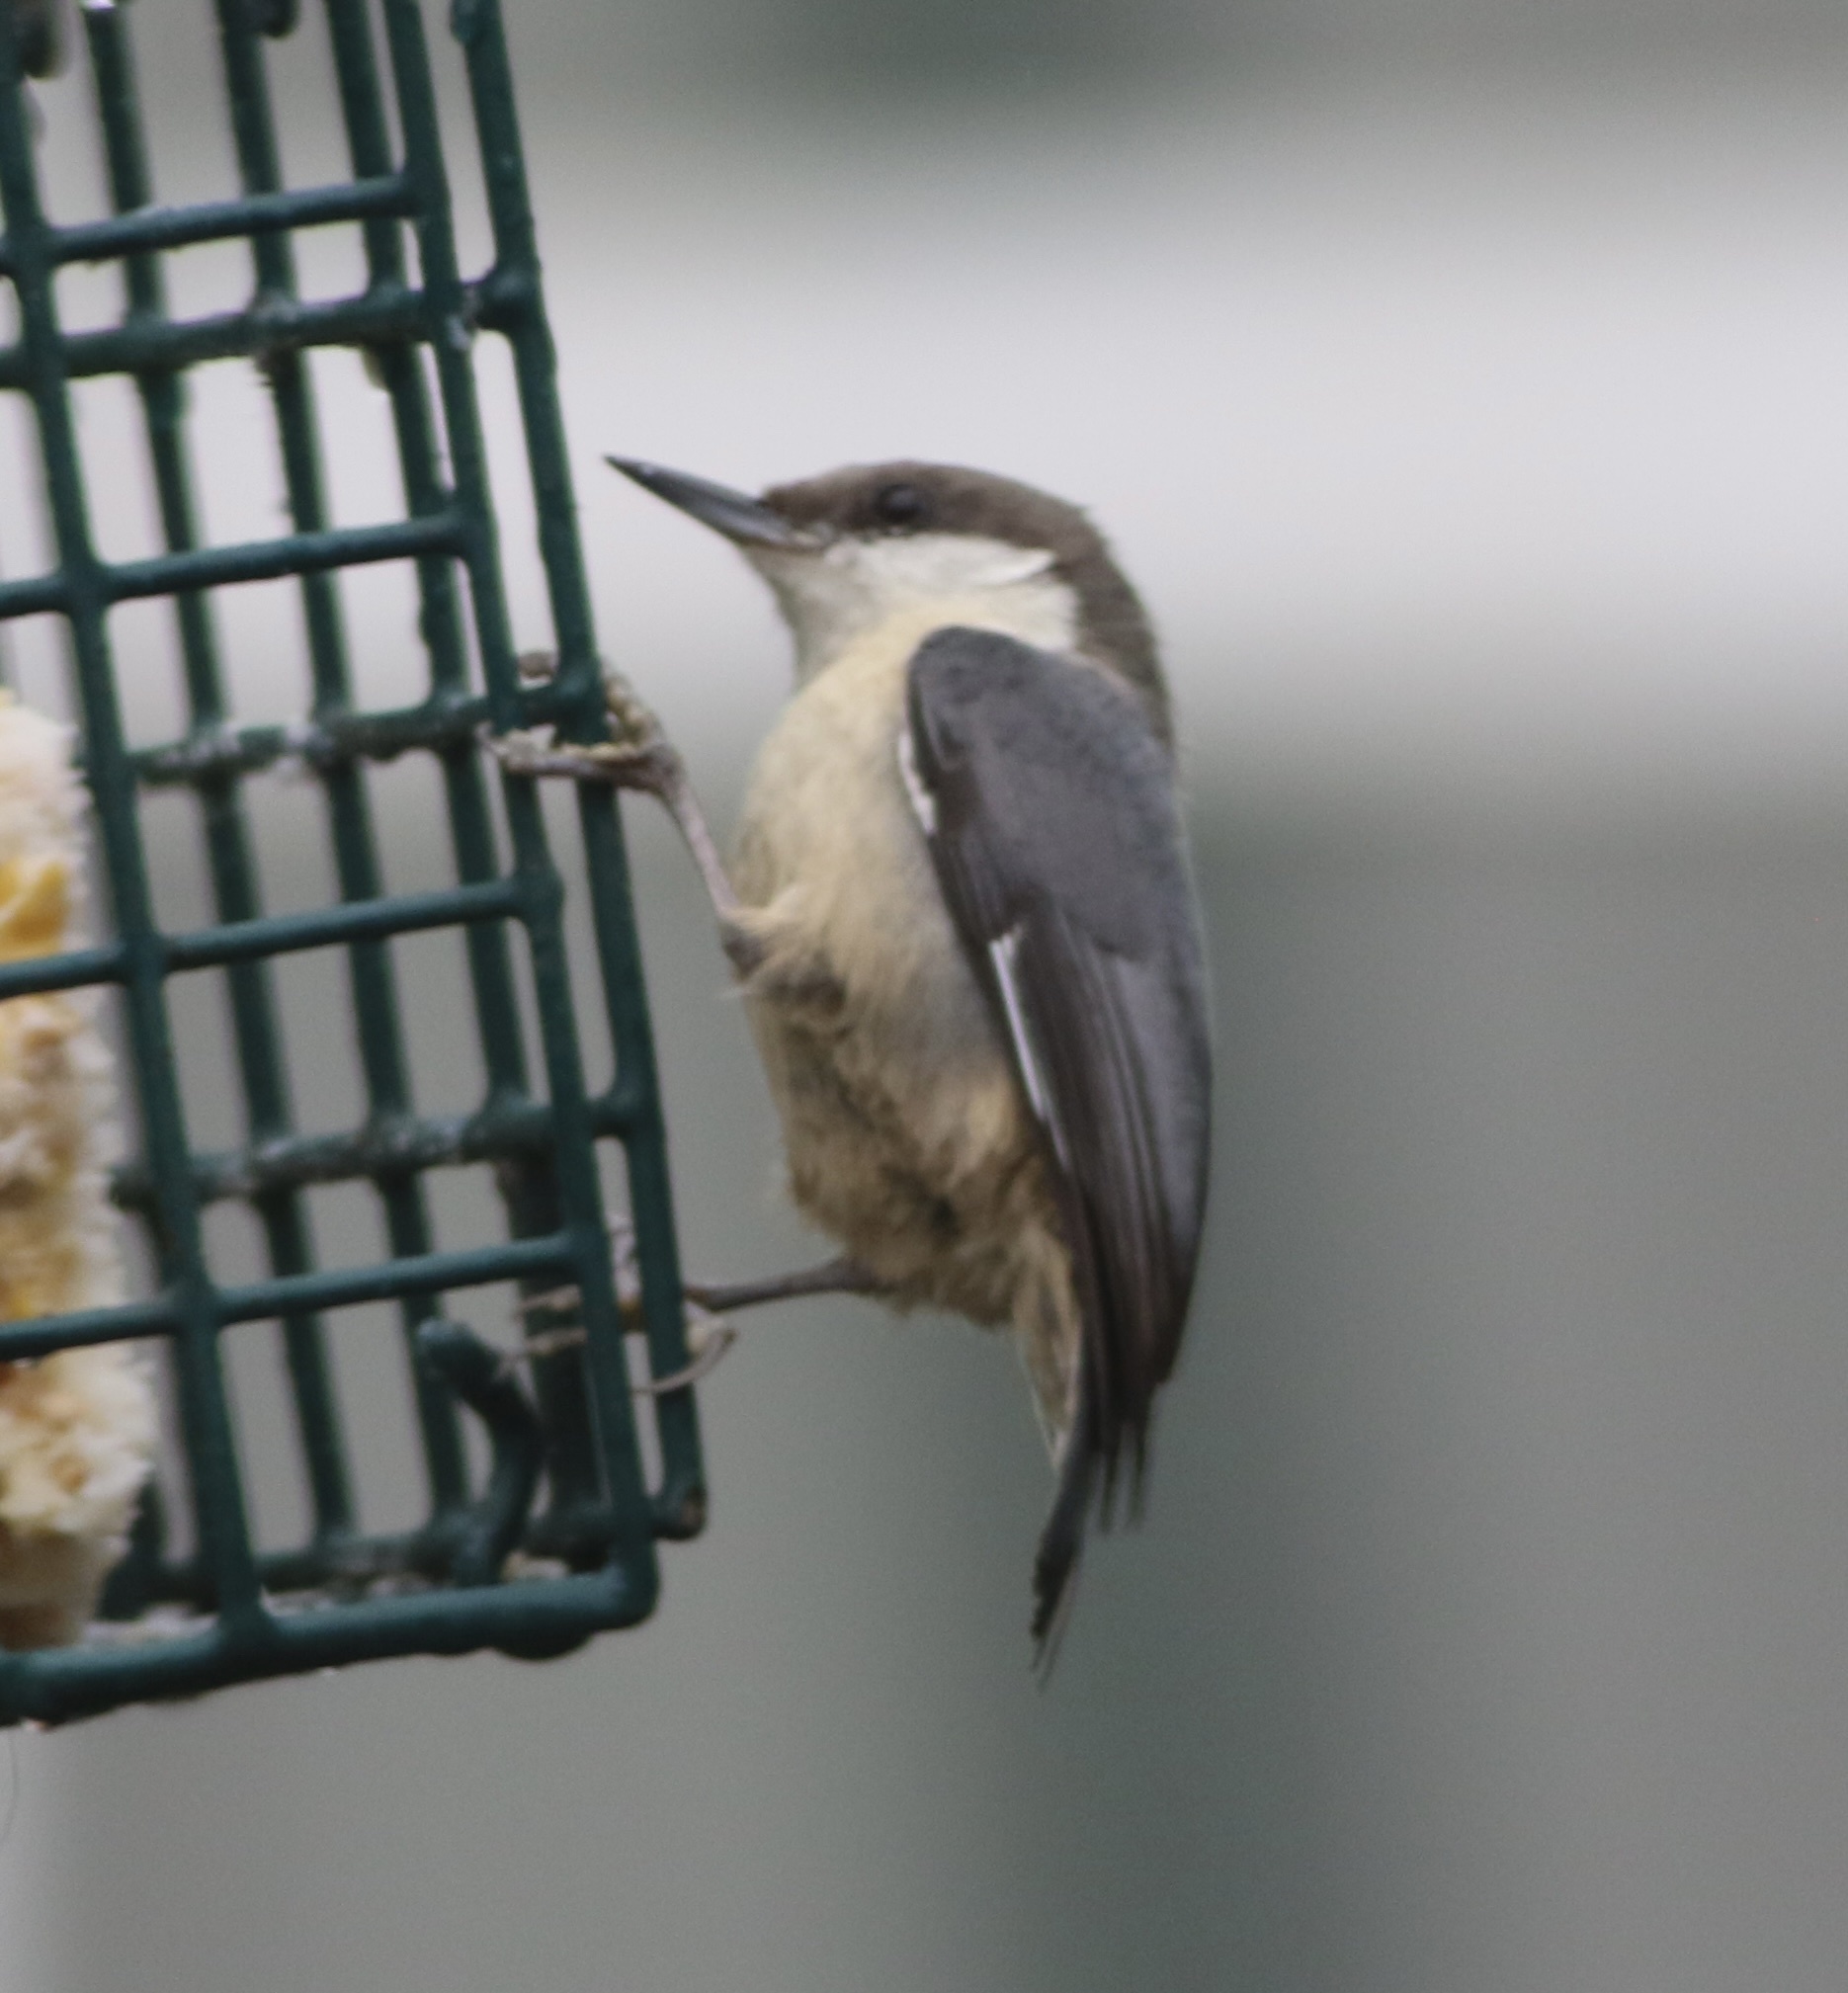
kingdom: Animalia
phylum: Chordata
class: Aves
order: Passeriformes
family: Sittidae
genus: Sitta
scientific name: Sitta pygmaea
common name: Pygmy nuthatch
